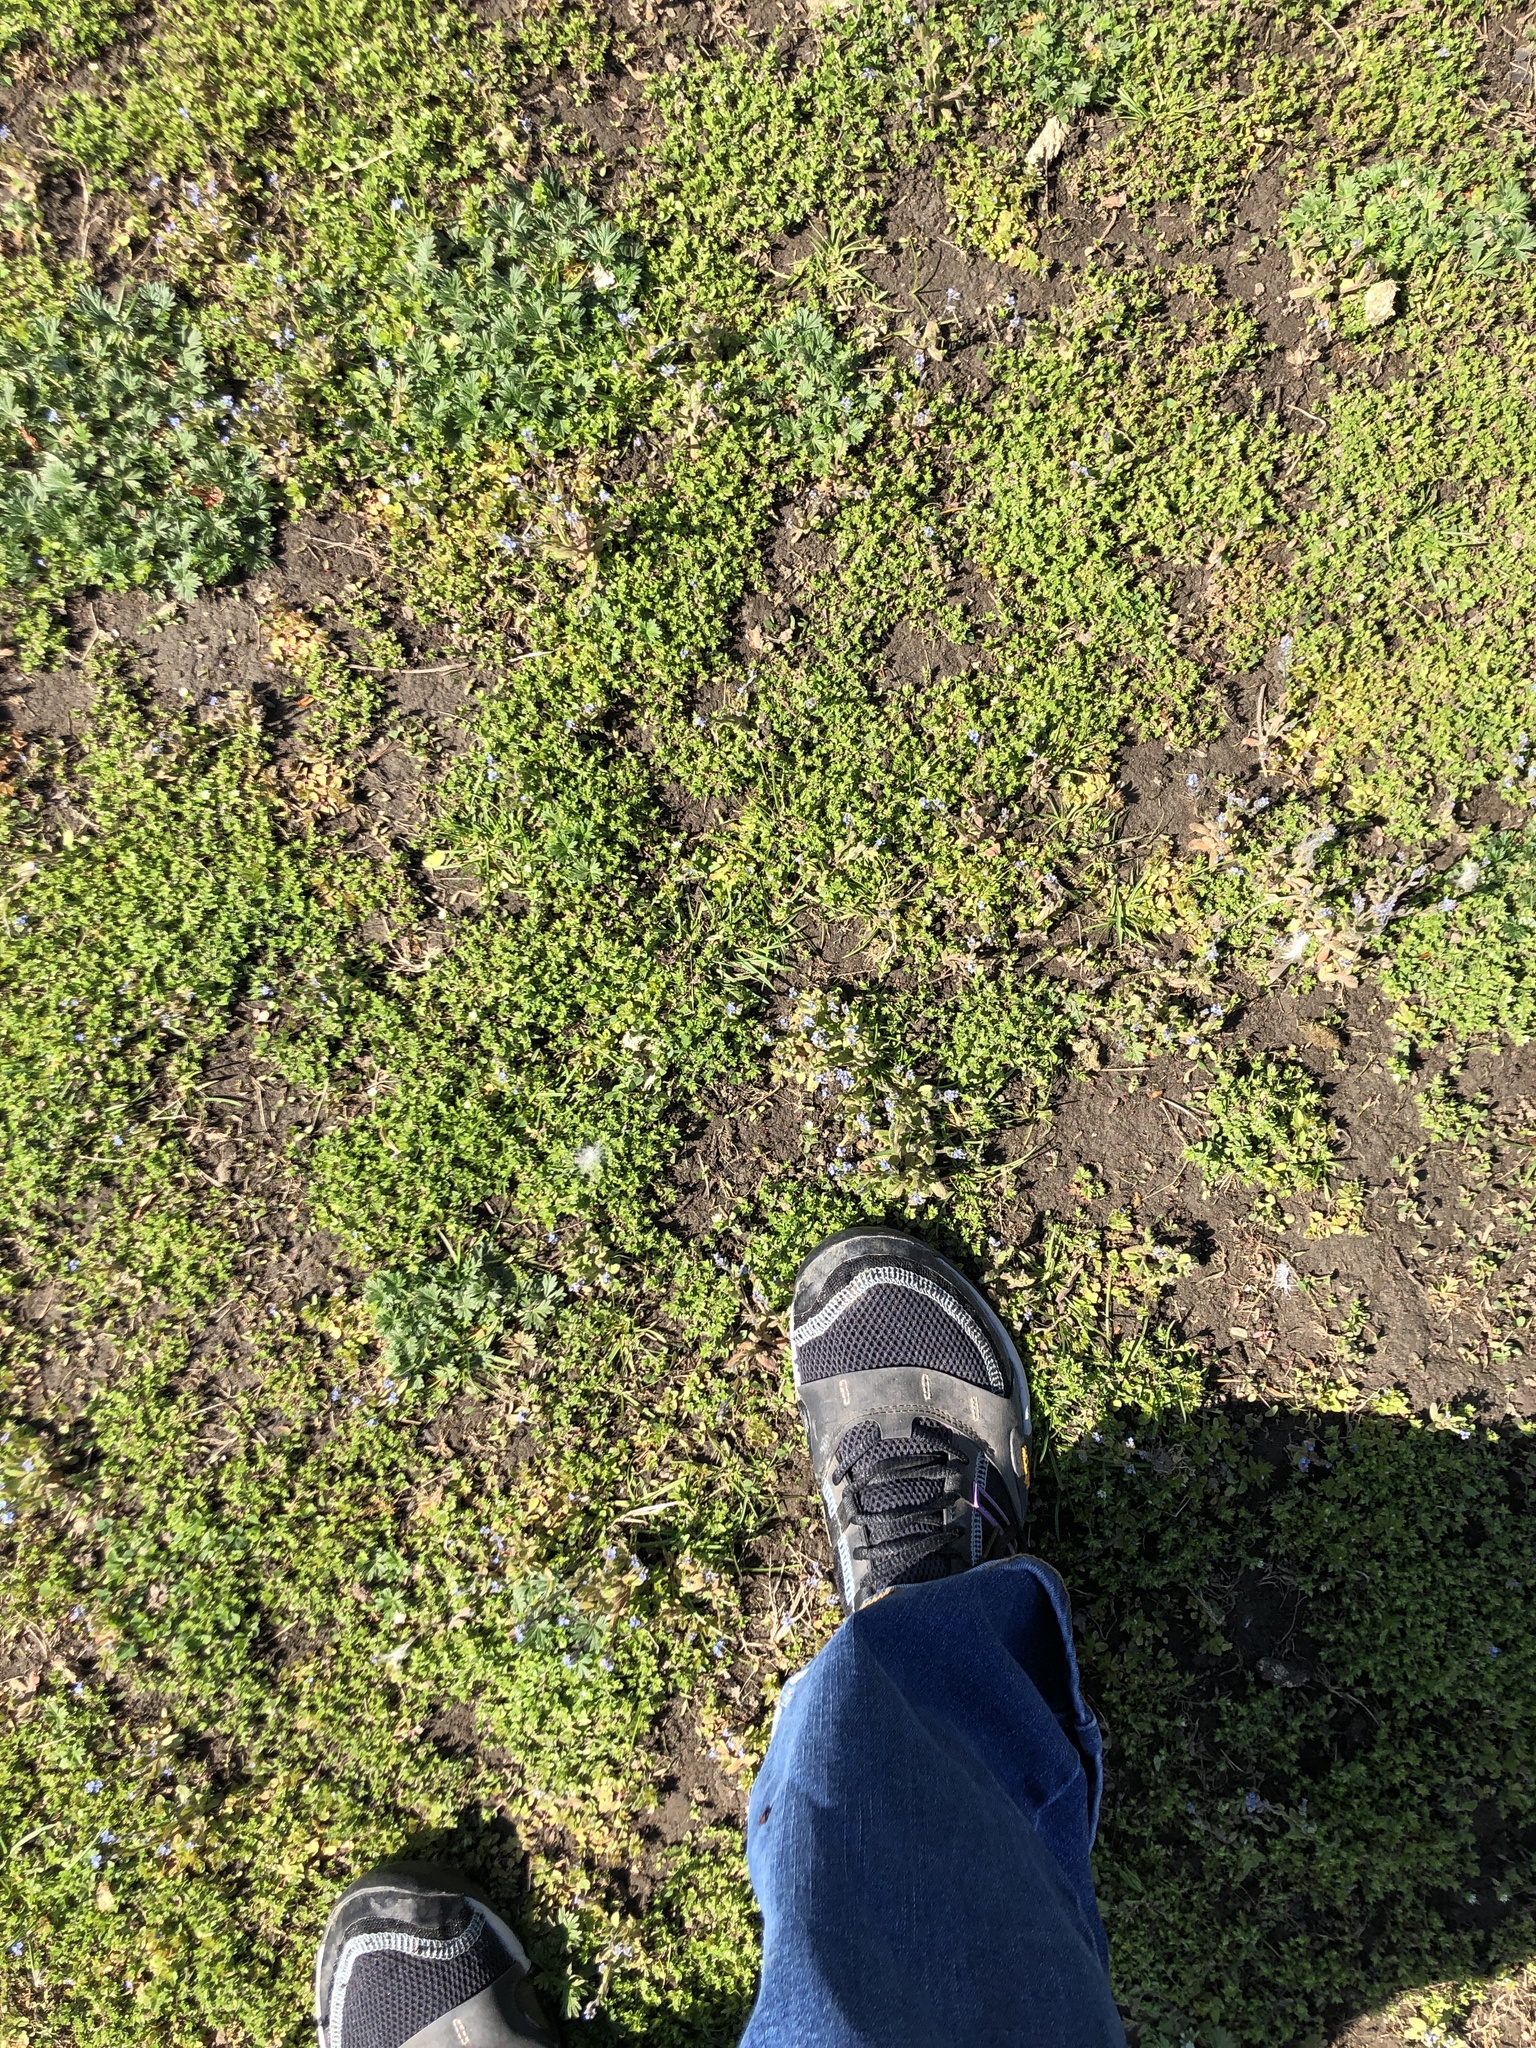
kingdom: Plantae
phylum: Tracheophyta
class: Magnoliopsida
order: Boraginales
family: Boraginaceae
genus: Myosotis
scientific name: Myosotis stricta
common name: Strict forget-me-not
